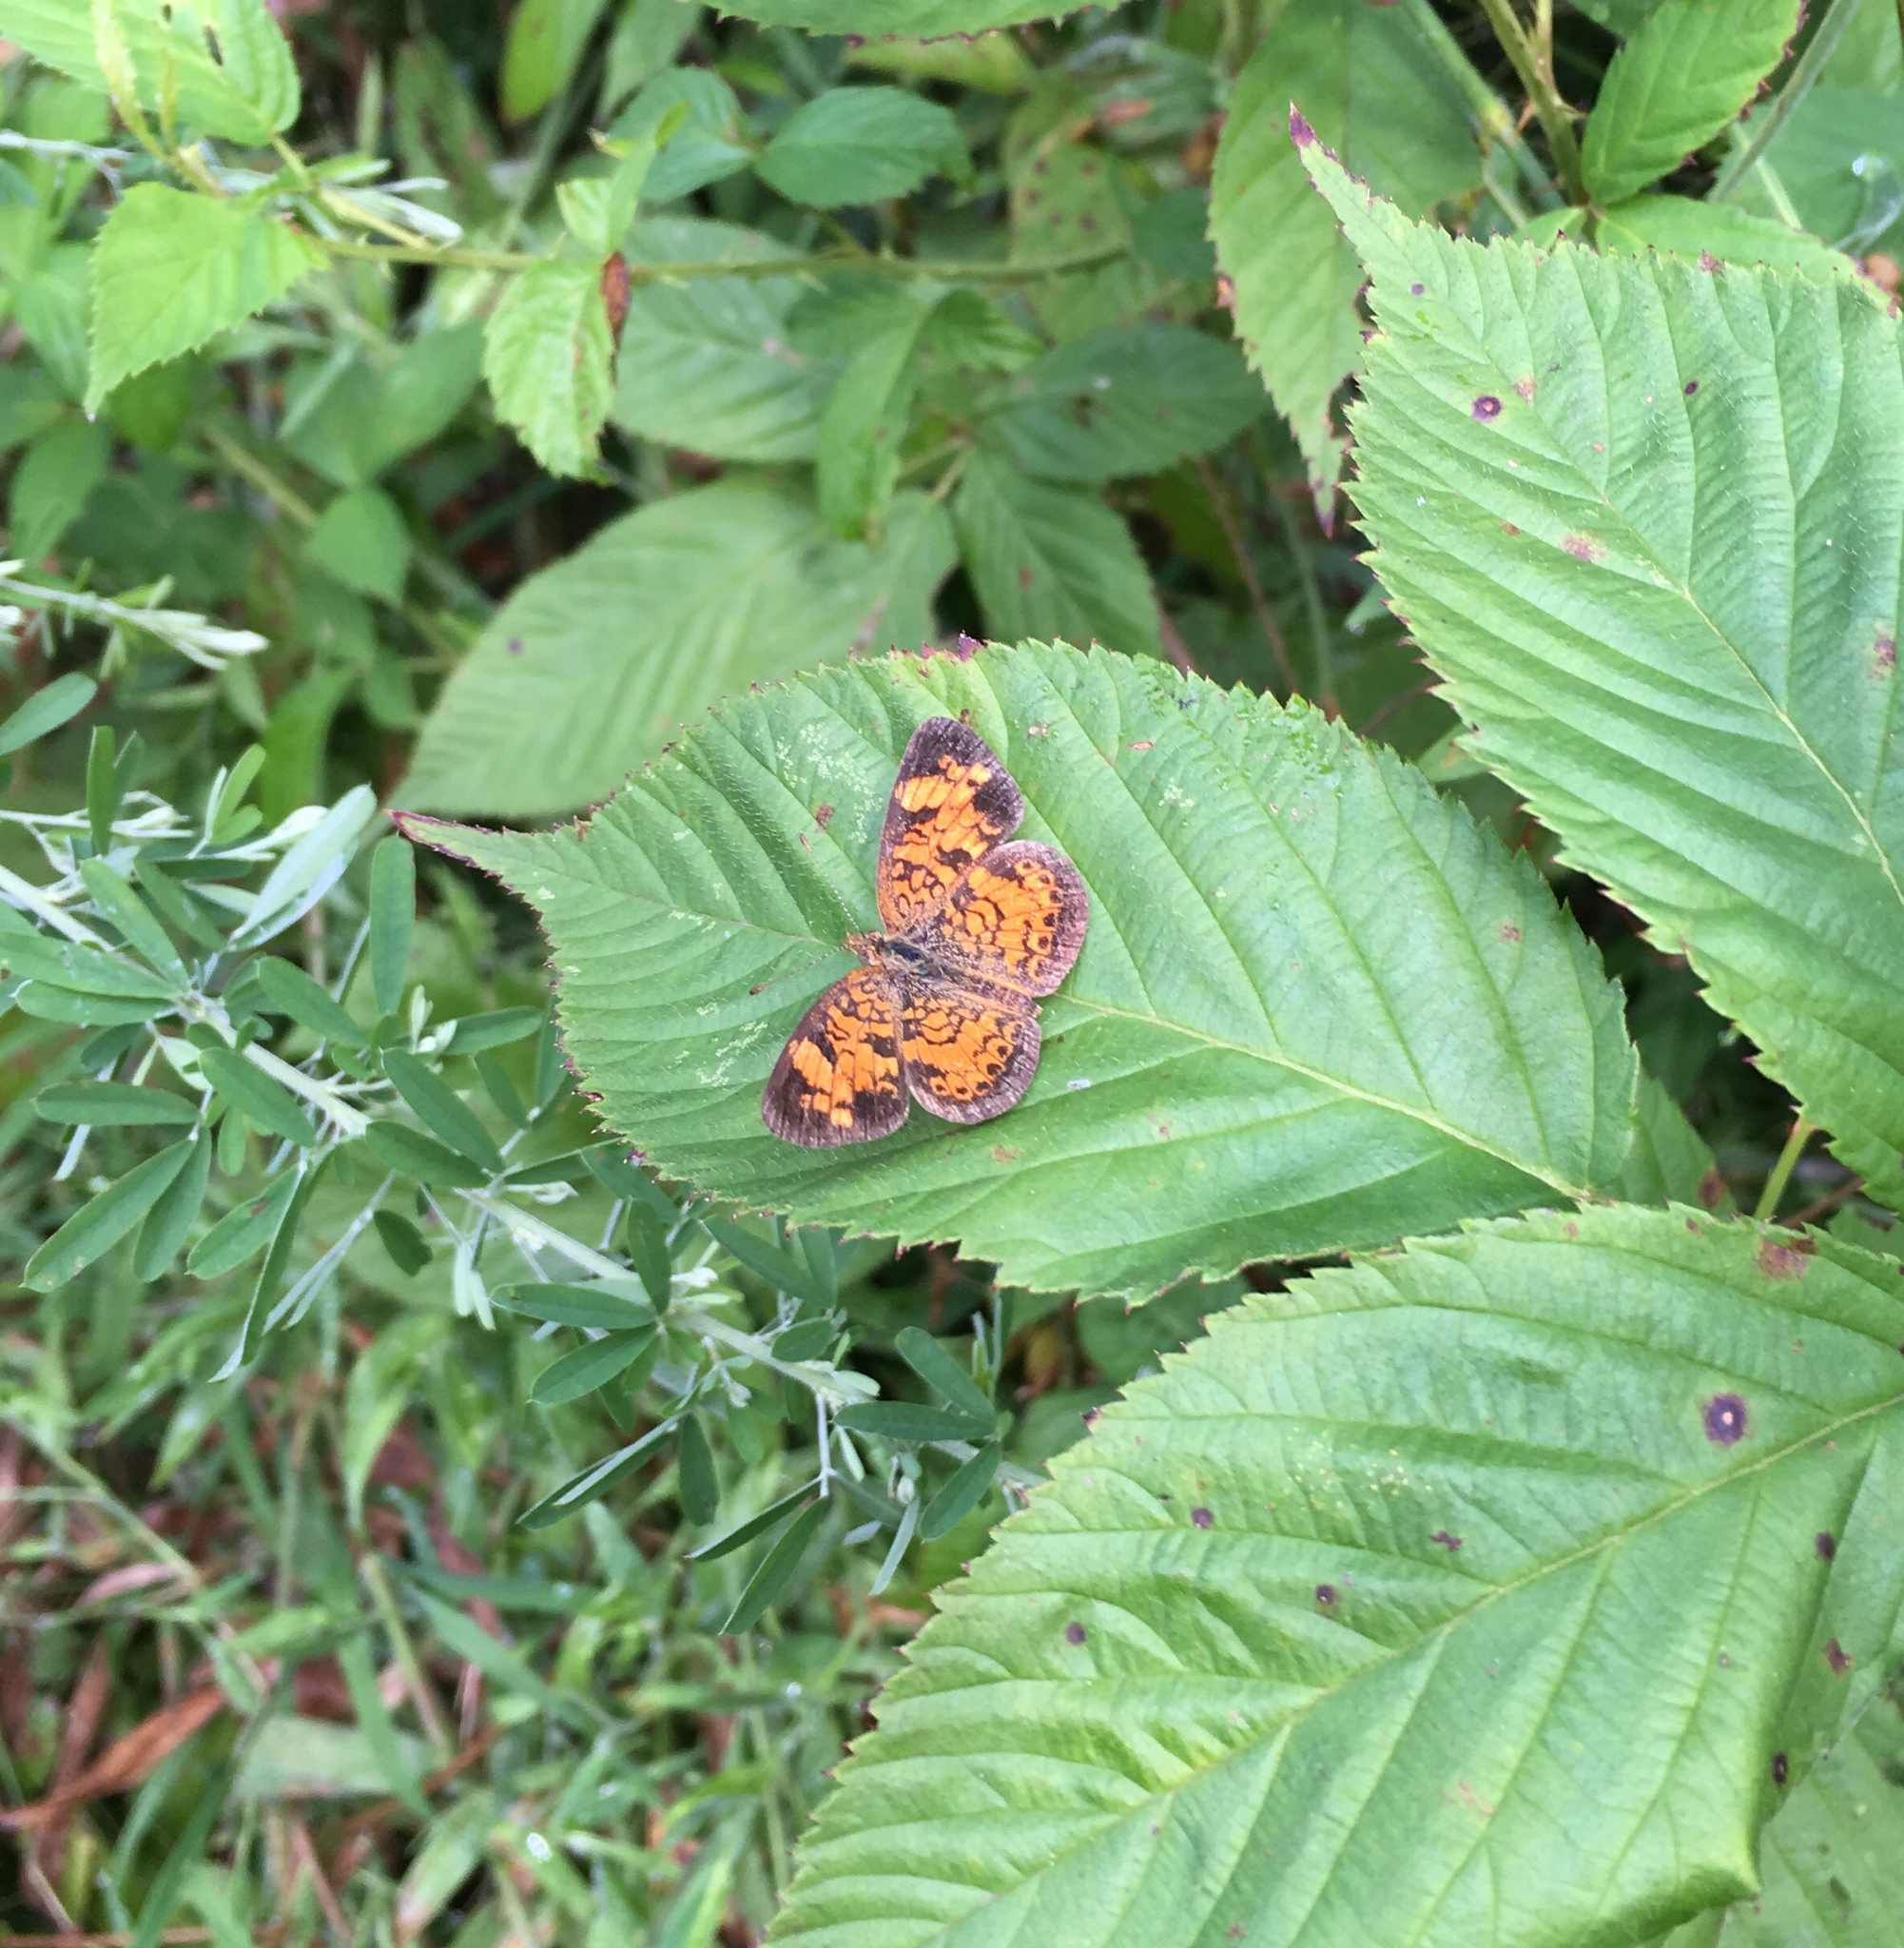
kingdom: Animalia
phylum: Arthropoda
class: Insecta
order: Lepidoptera
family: Nymphalidae
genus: Phyciodes
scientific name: Phyciodes tharos
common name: Pearl crescent
